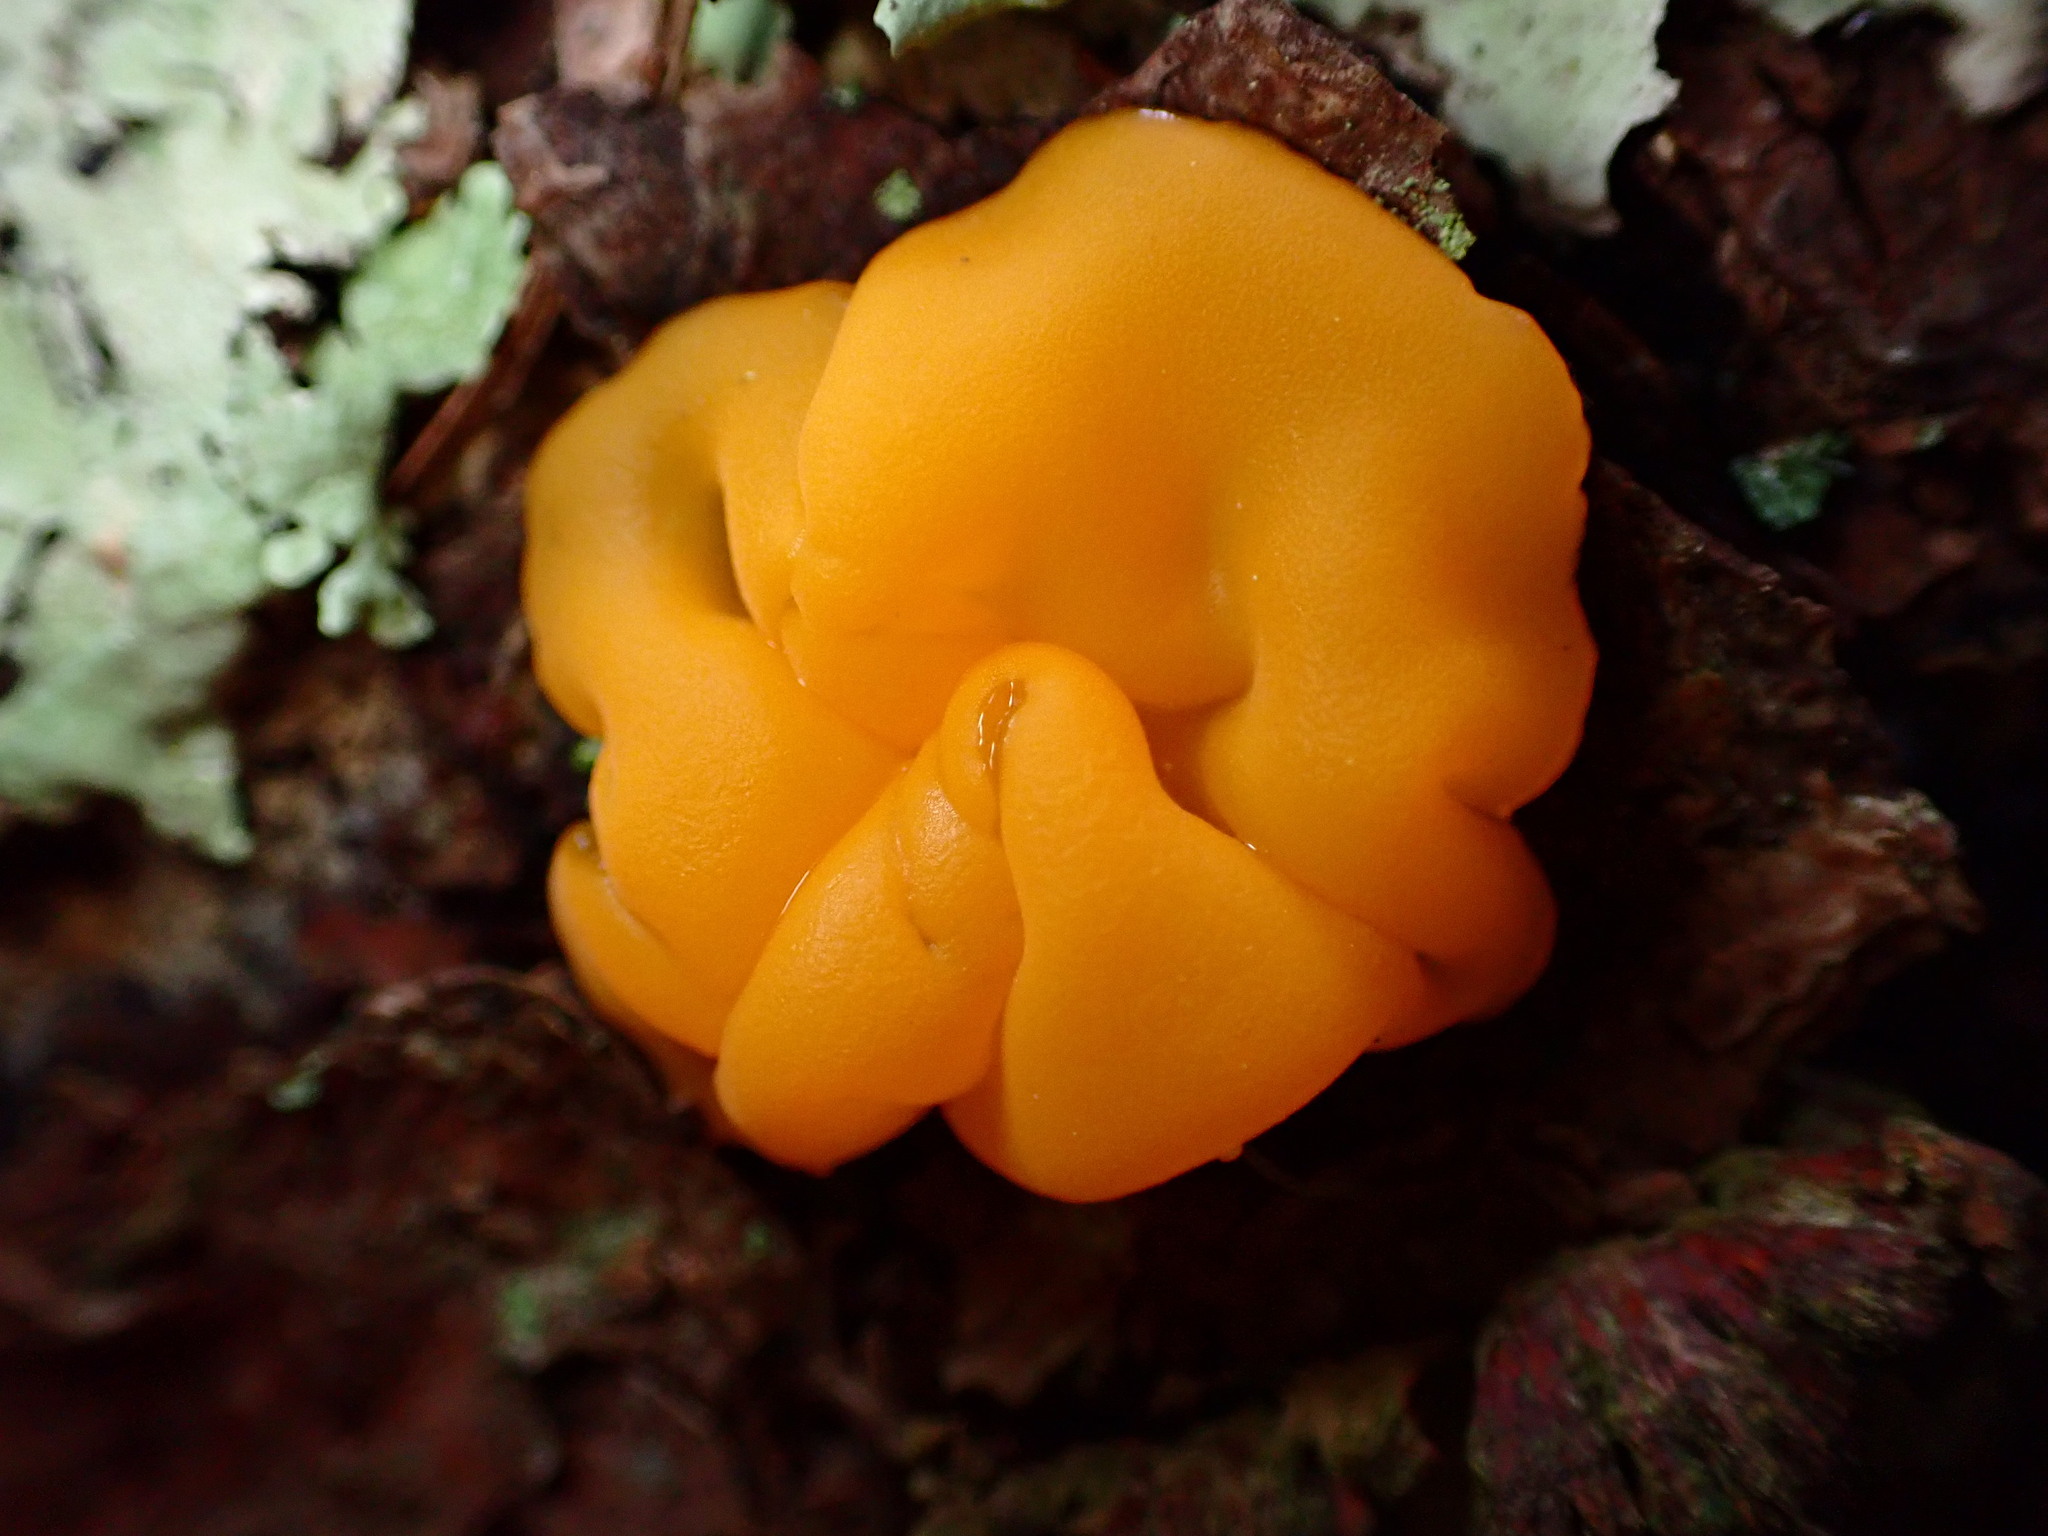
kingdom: Fungi
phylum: Basidiomycota
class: Dacrymycetes
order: Dacrymycetales
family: Dacrymycetaceae
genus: Dacrymyces
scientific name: Dacrymyces chrysospermus
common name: Orange jelly spot
